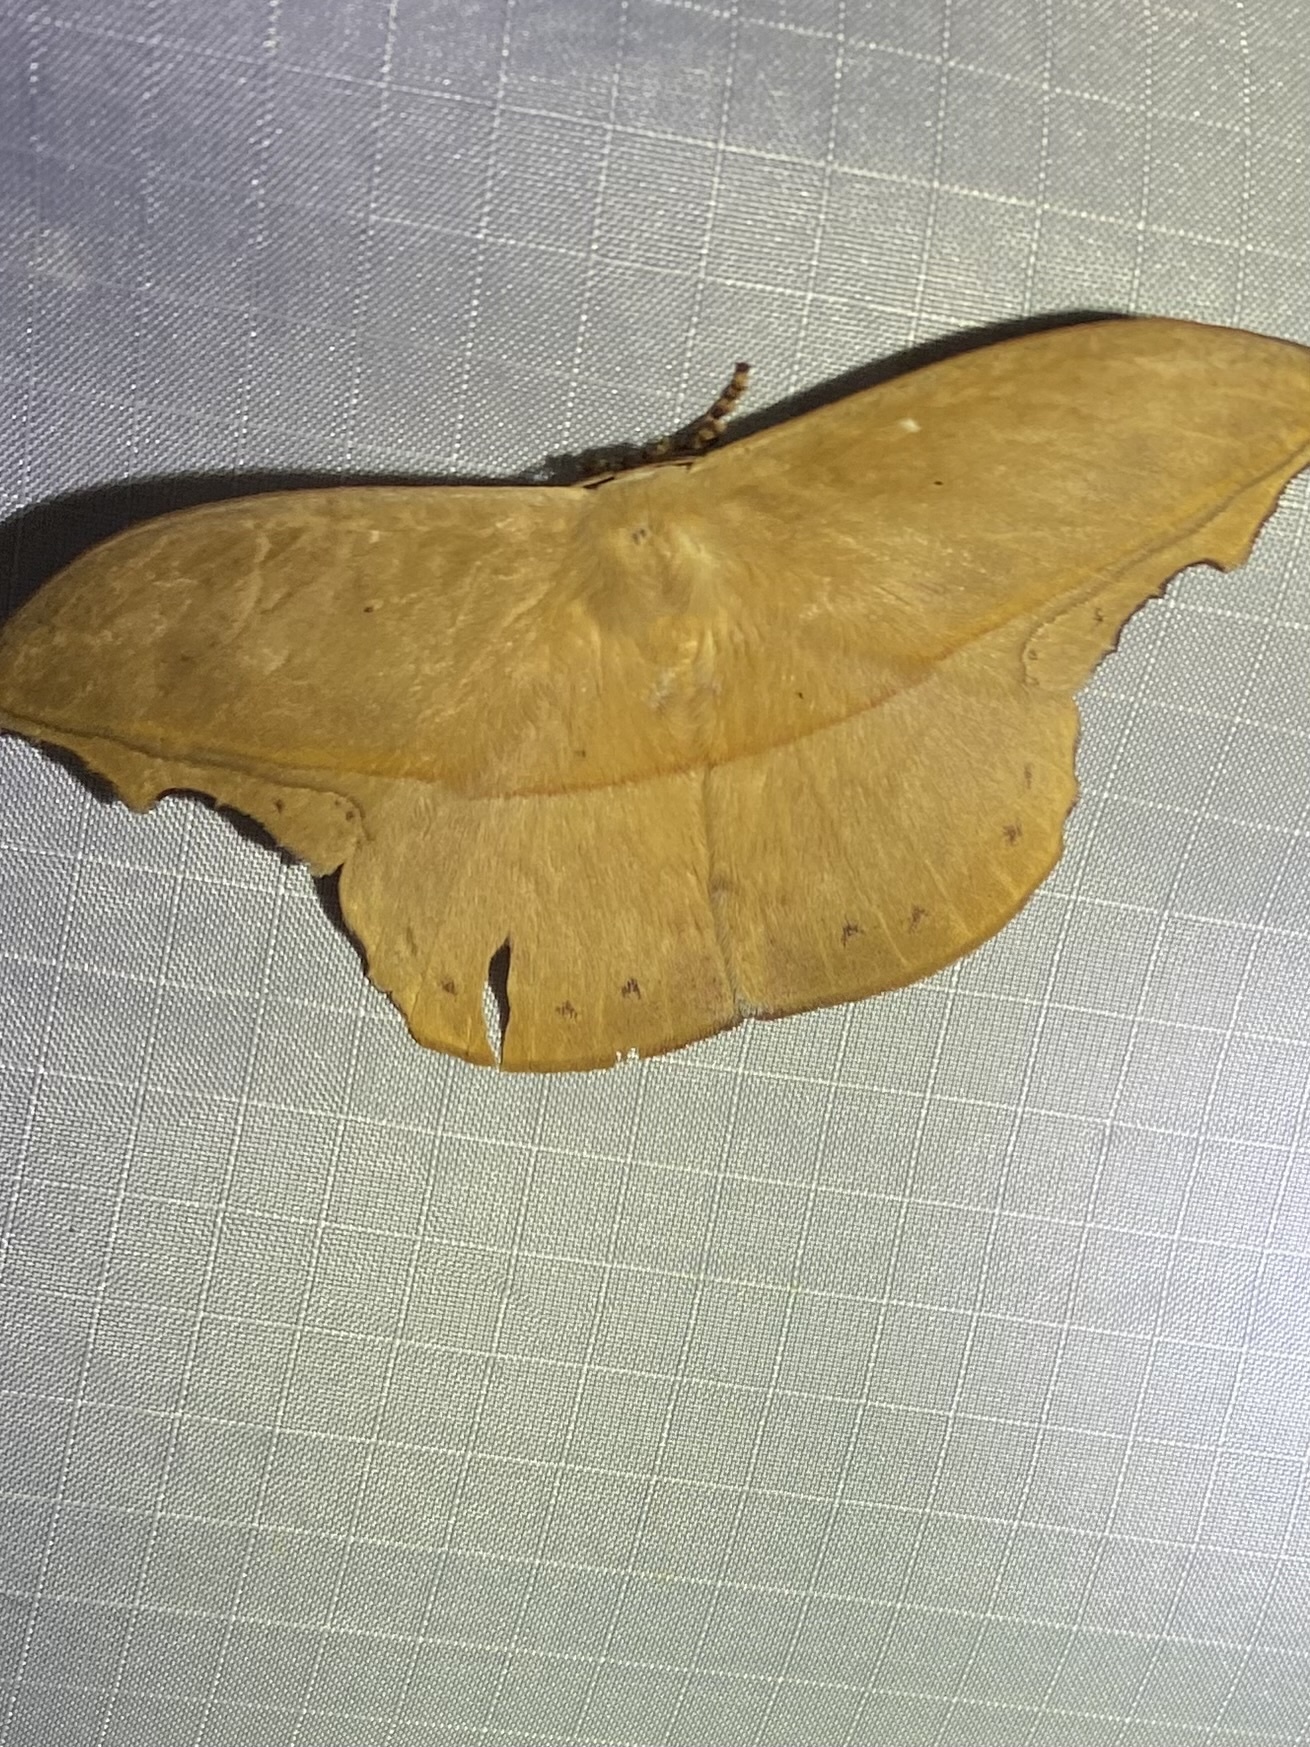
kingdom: Animalia
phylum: Arthropoda
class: Insecta
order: Lepidoptera
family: Saturniidae
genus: Oxytenis
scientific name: Oxytenis naemia
